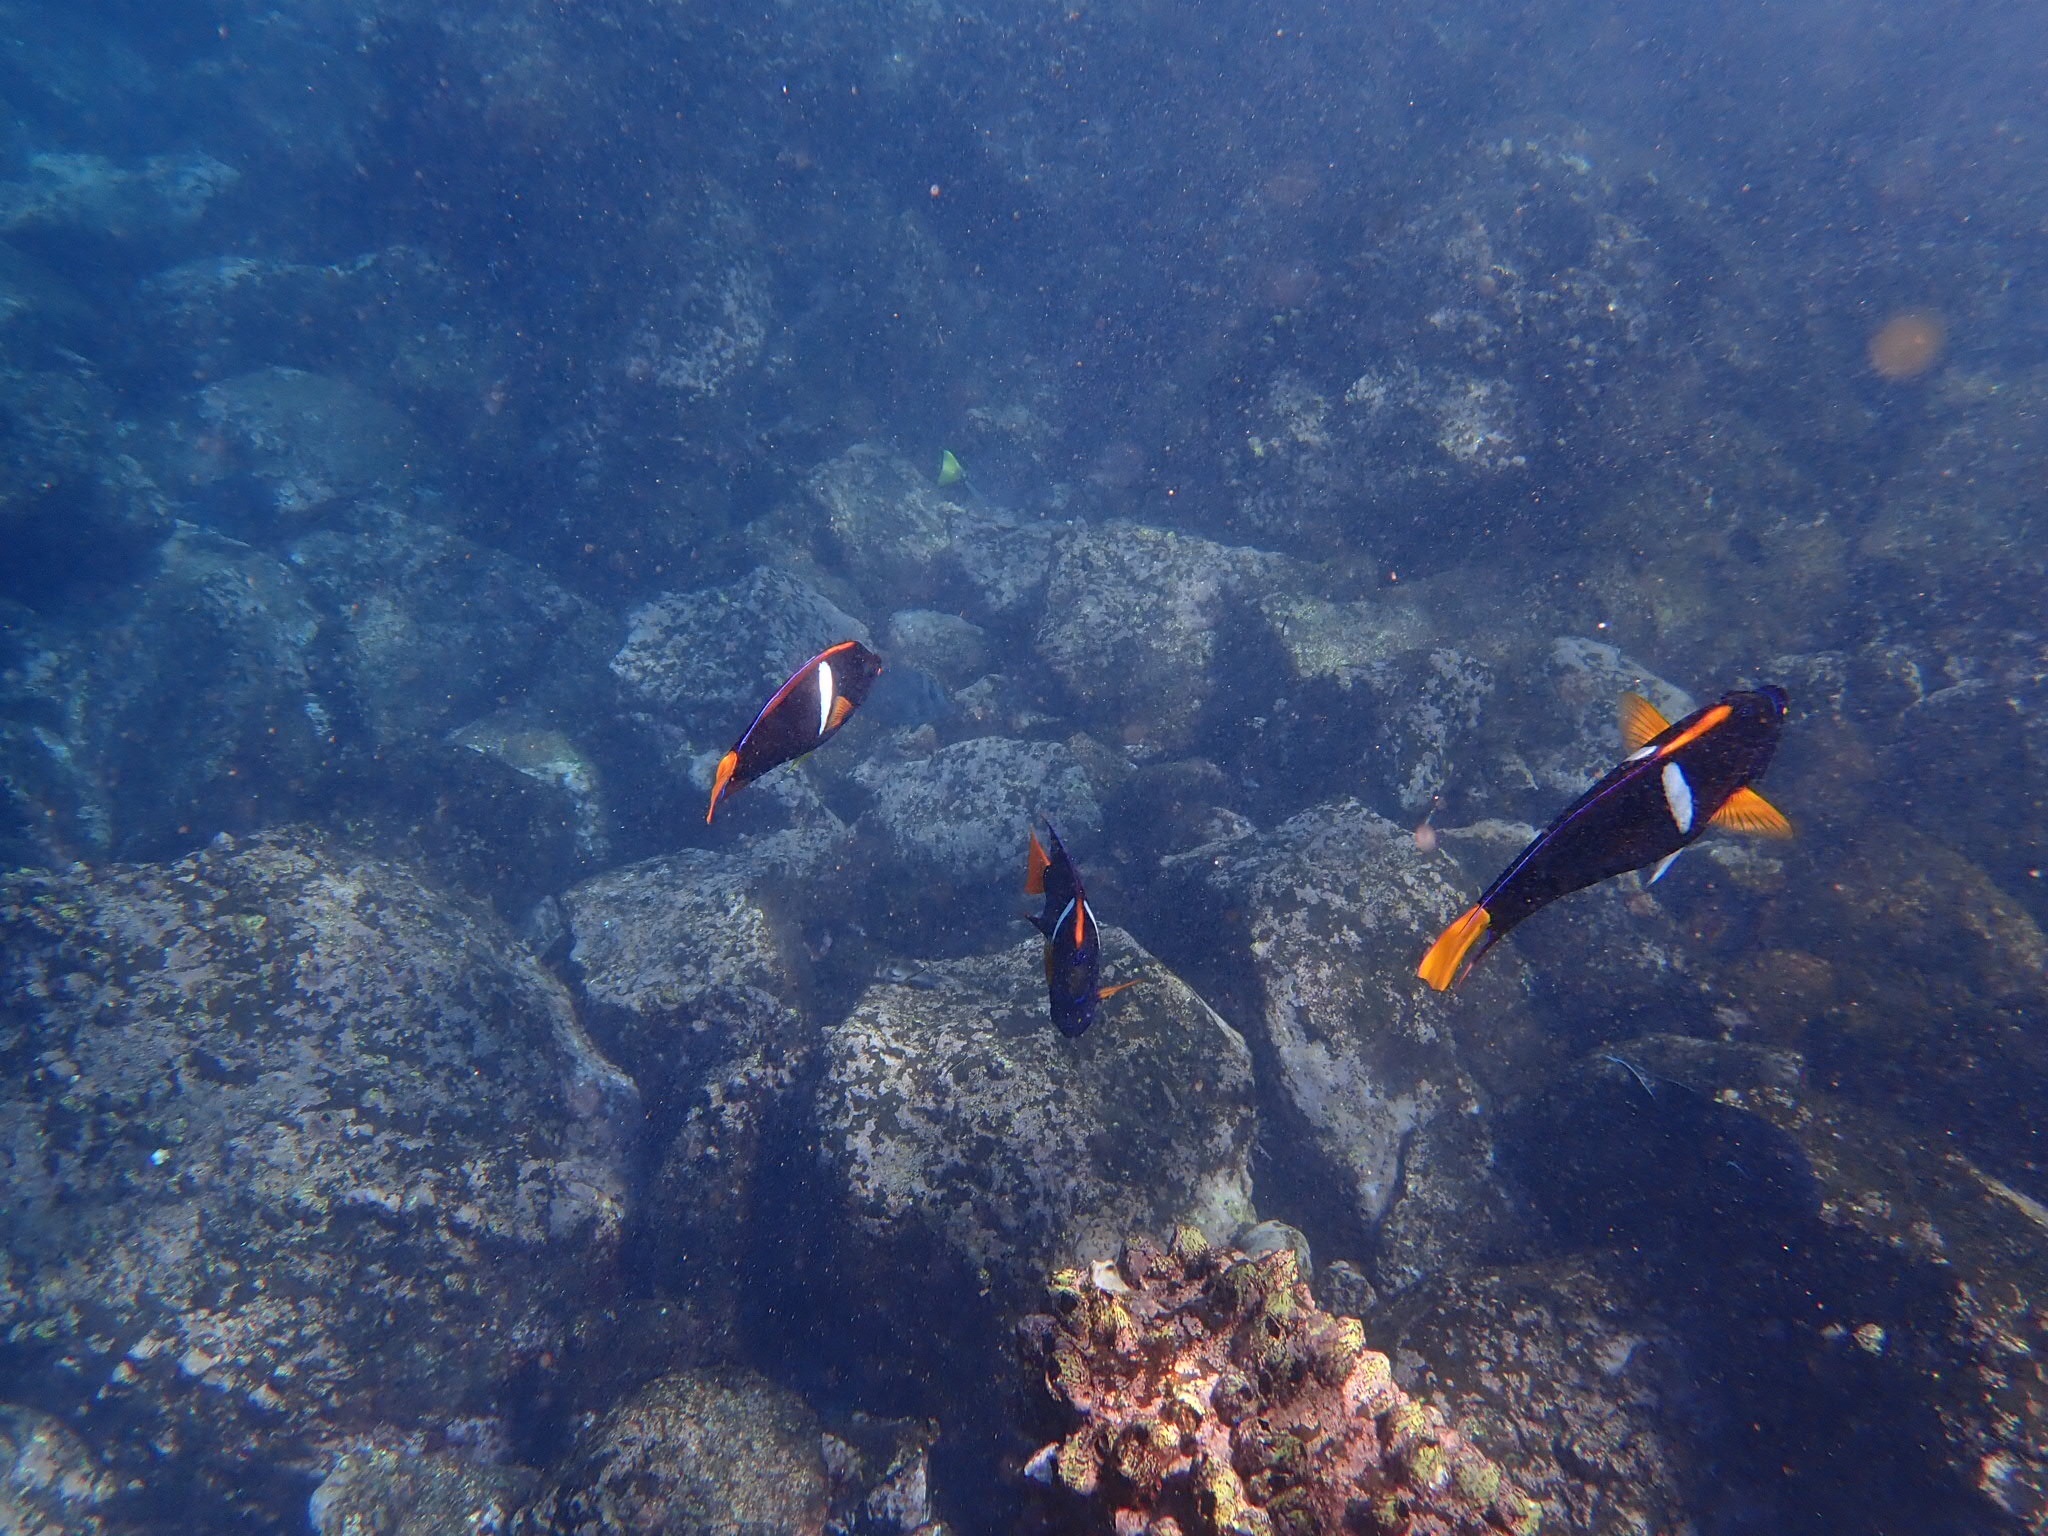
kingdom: Animalia
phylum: Chordata
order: Perciformes
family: Pomacanthidae
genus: Holacanthus
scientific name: Holacanthus passer
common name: King angelfish
